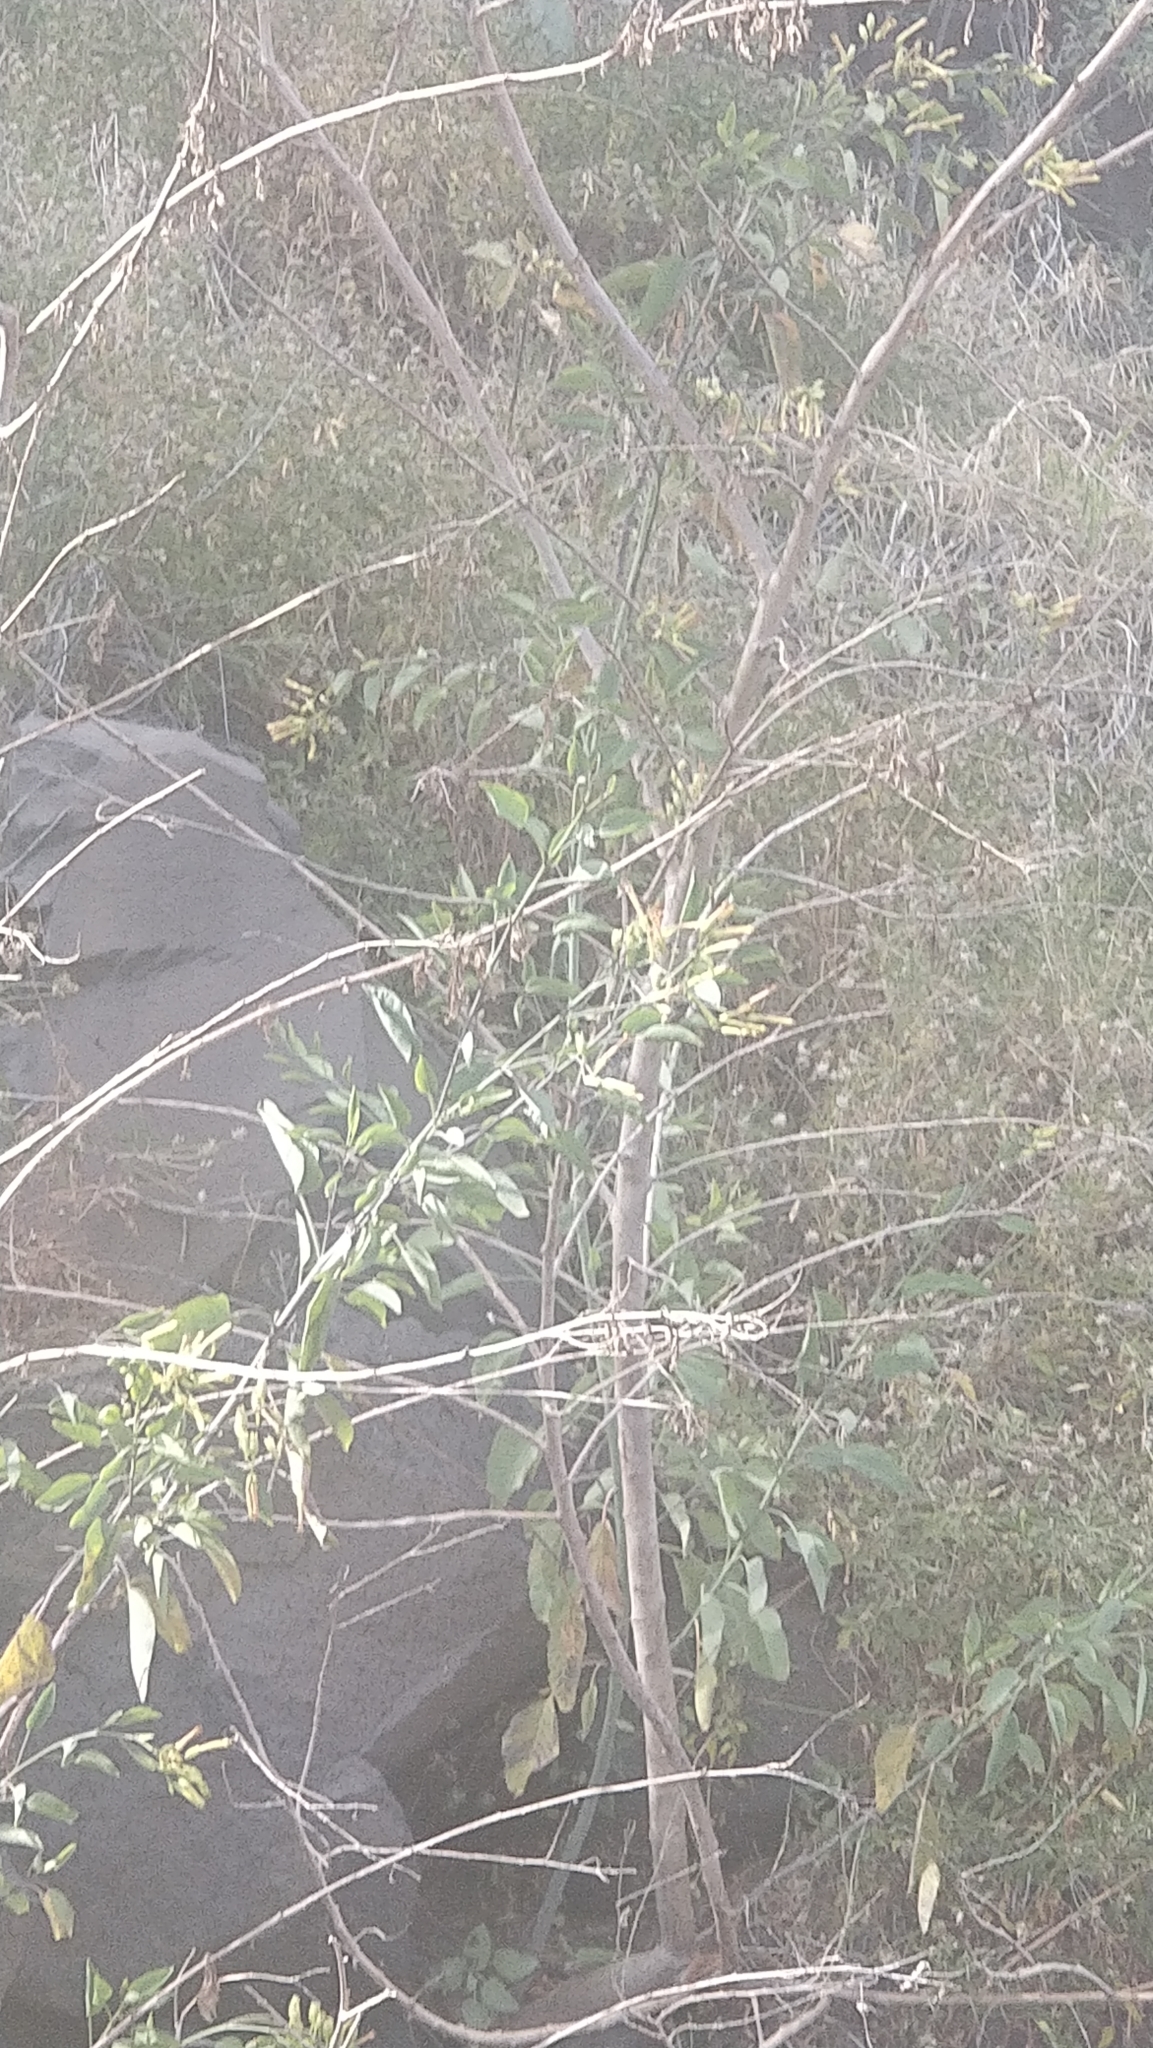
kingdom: Plantae
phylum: Tracheophyta
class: Magnoliopsida
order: Solanales
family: Solanaceae
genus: Nicotiana
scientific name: Nicotiana glauca
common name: Tree tobacco
